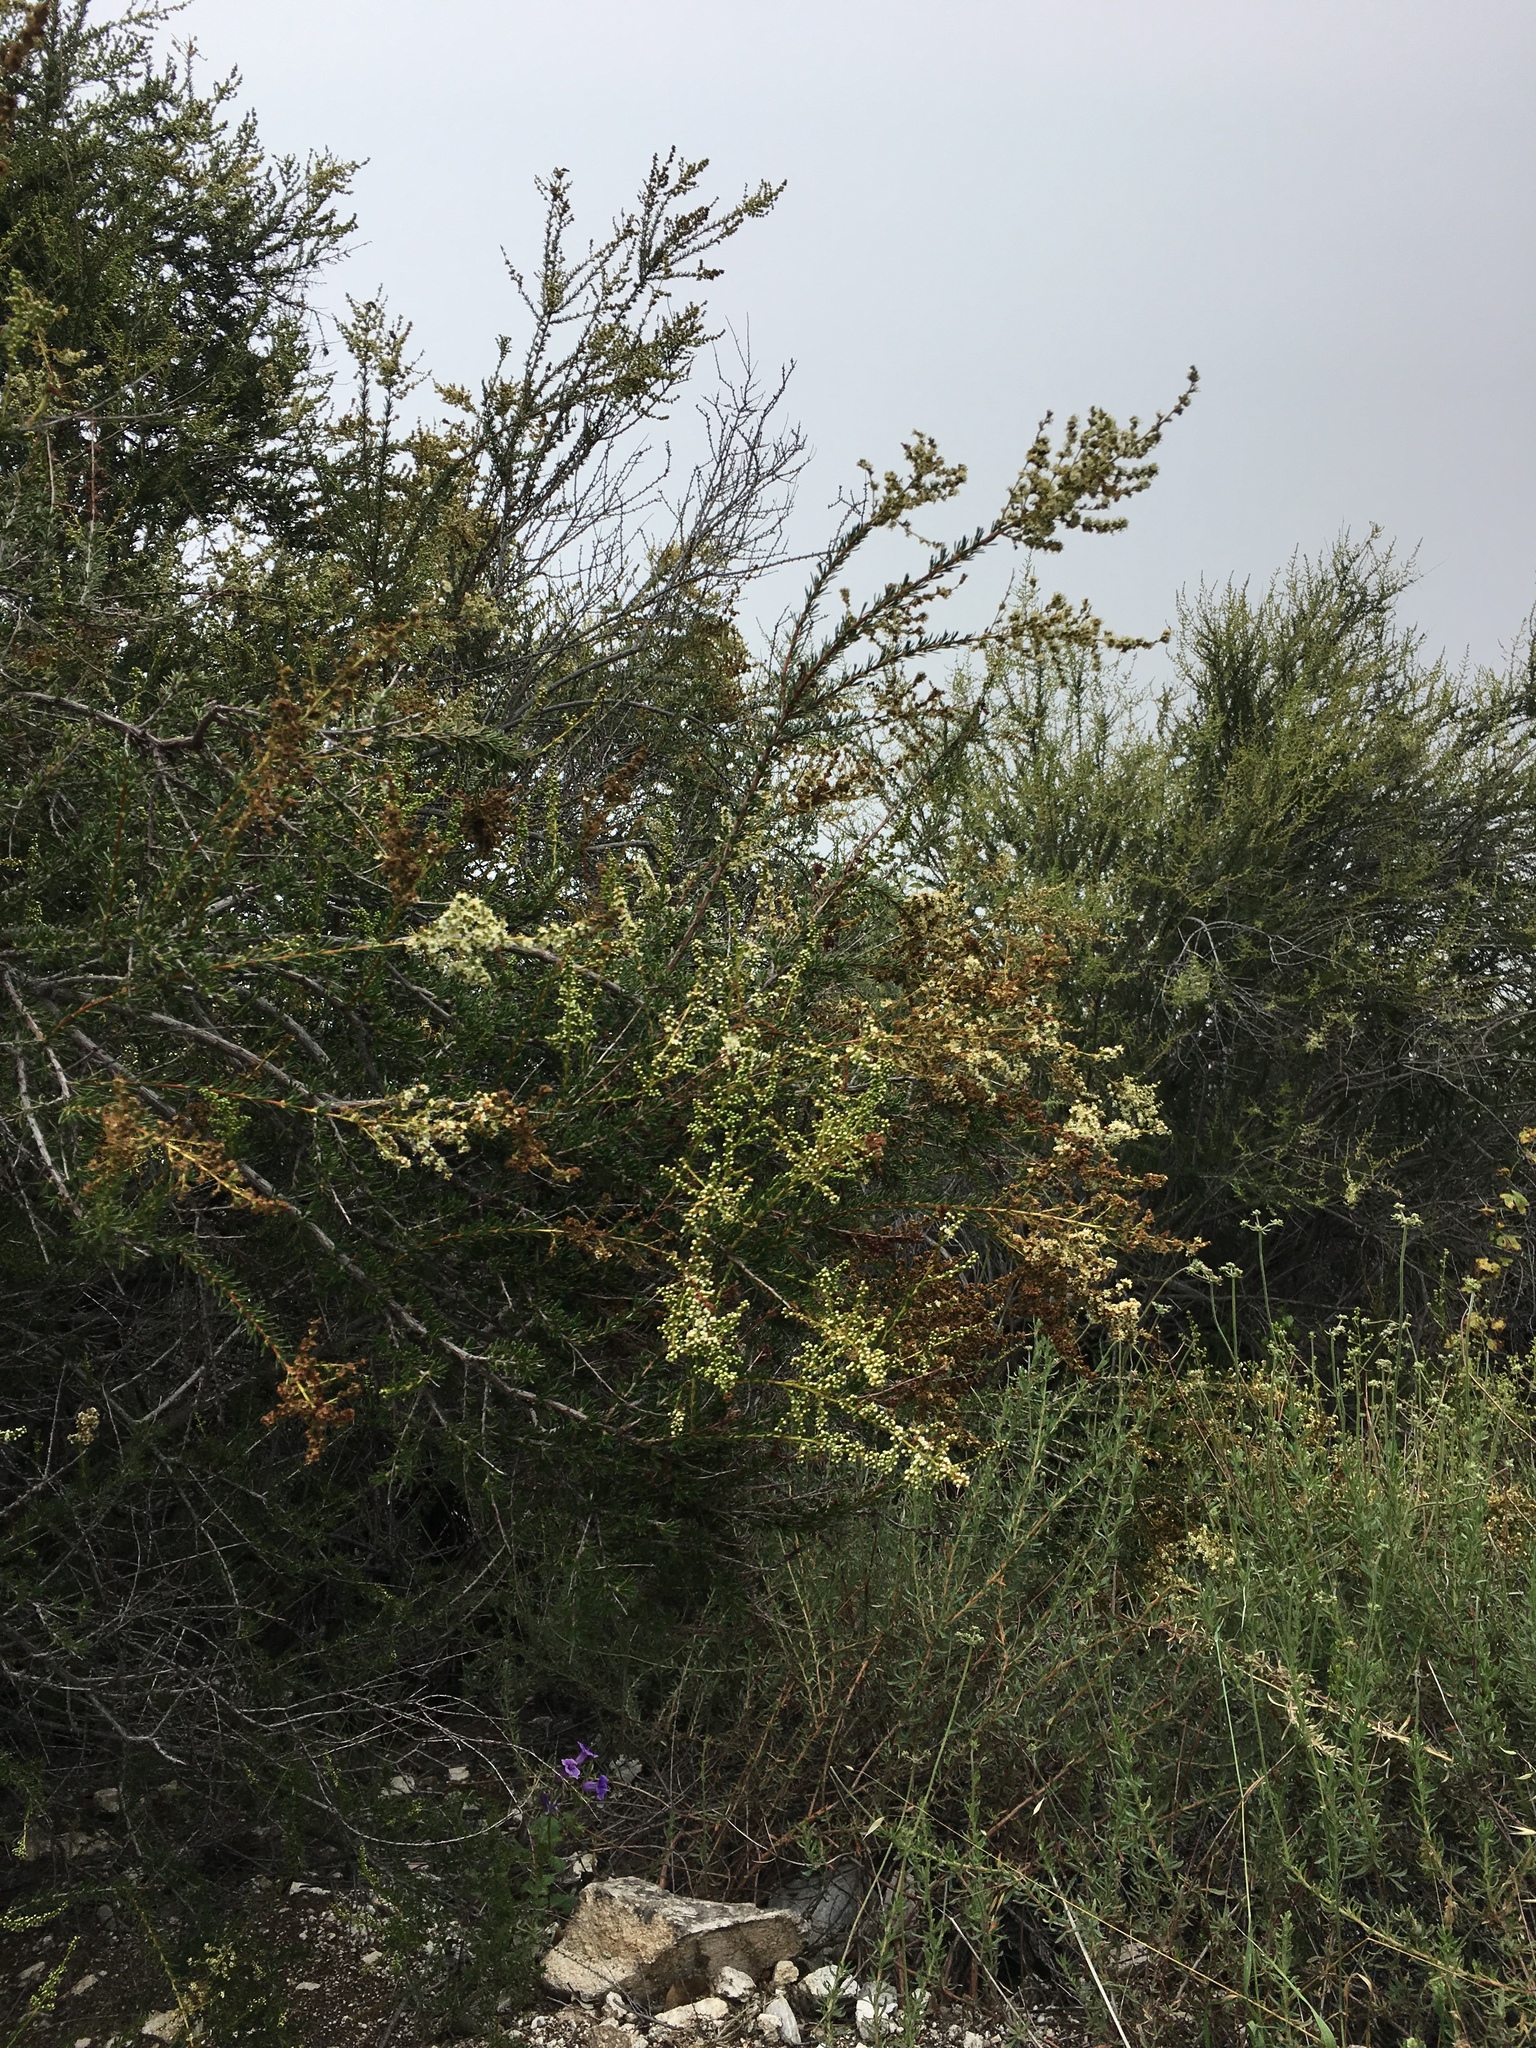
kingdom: Plantae
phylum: Tracheophyta
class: Magnoliopsida
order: Rosales
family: Rosaceae
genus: Adenostoma
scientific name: Adenostoma fasciculatum
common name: Chamise
